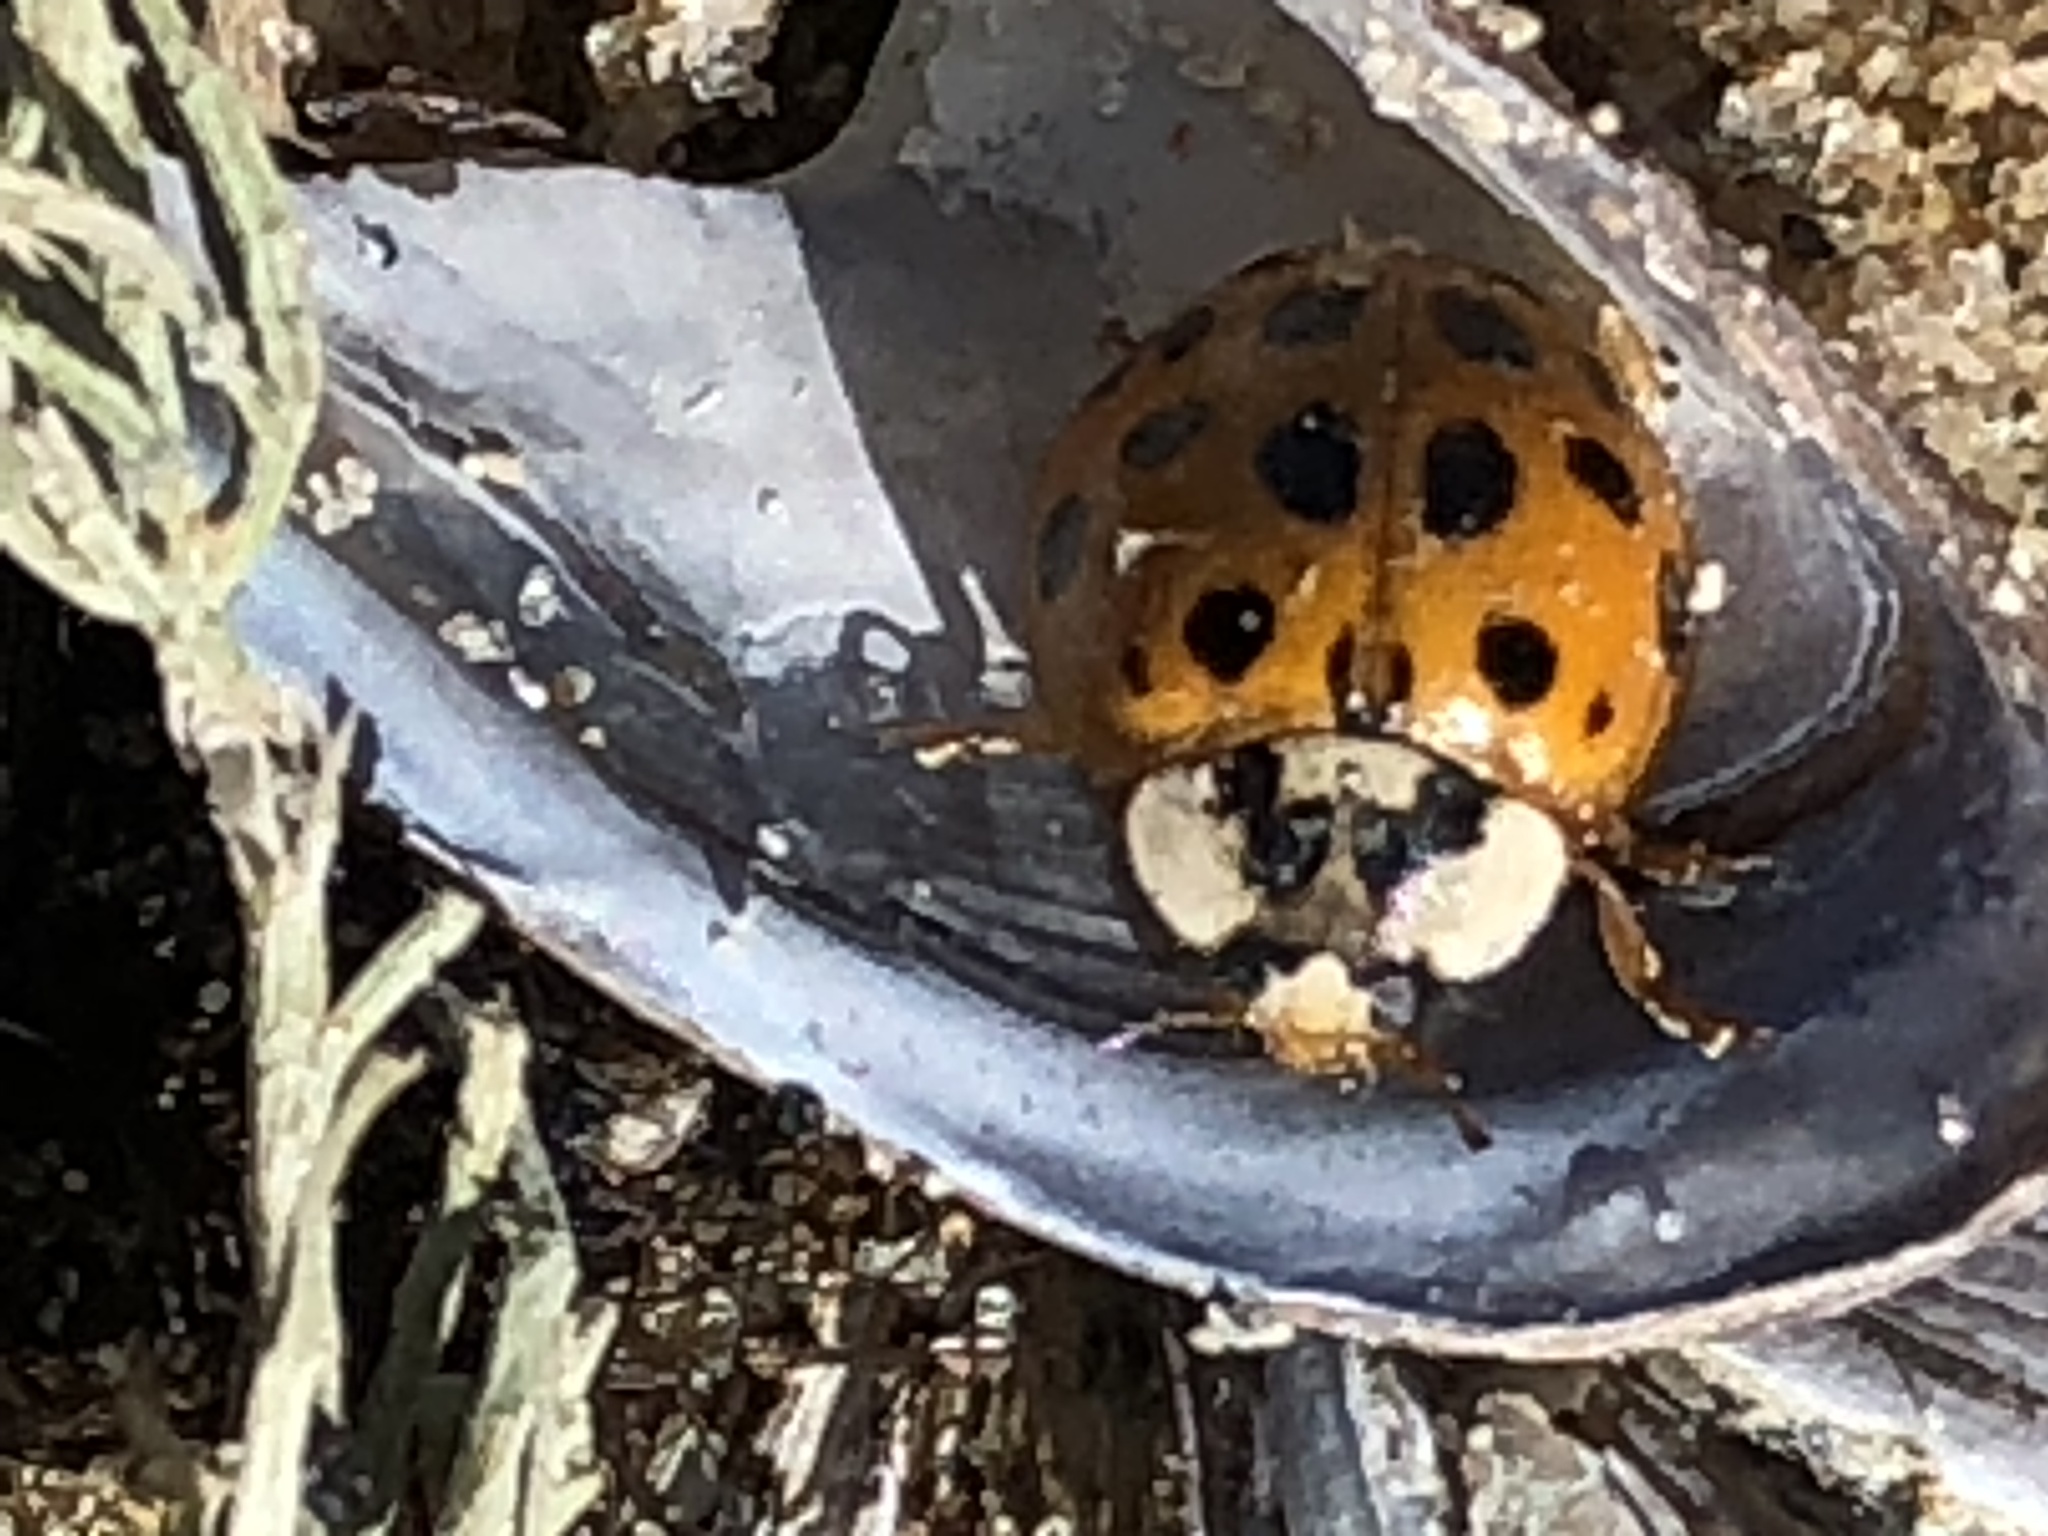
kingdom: Animalia
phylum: Arthropoda
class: Insecta
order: Coleoptera
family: Coccinellidae
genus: Harmonia
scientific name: Harmonia axyridis
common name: Harlequin ladybird
